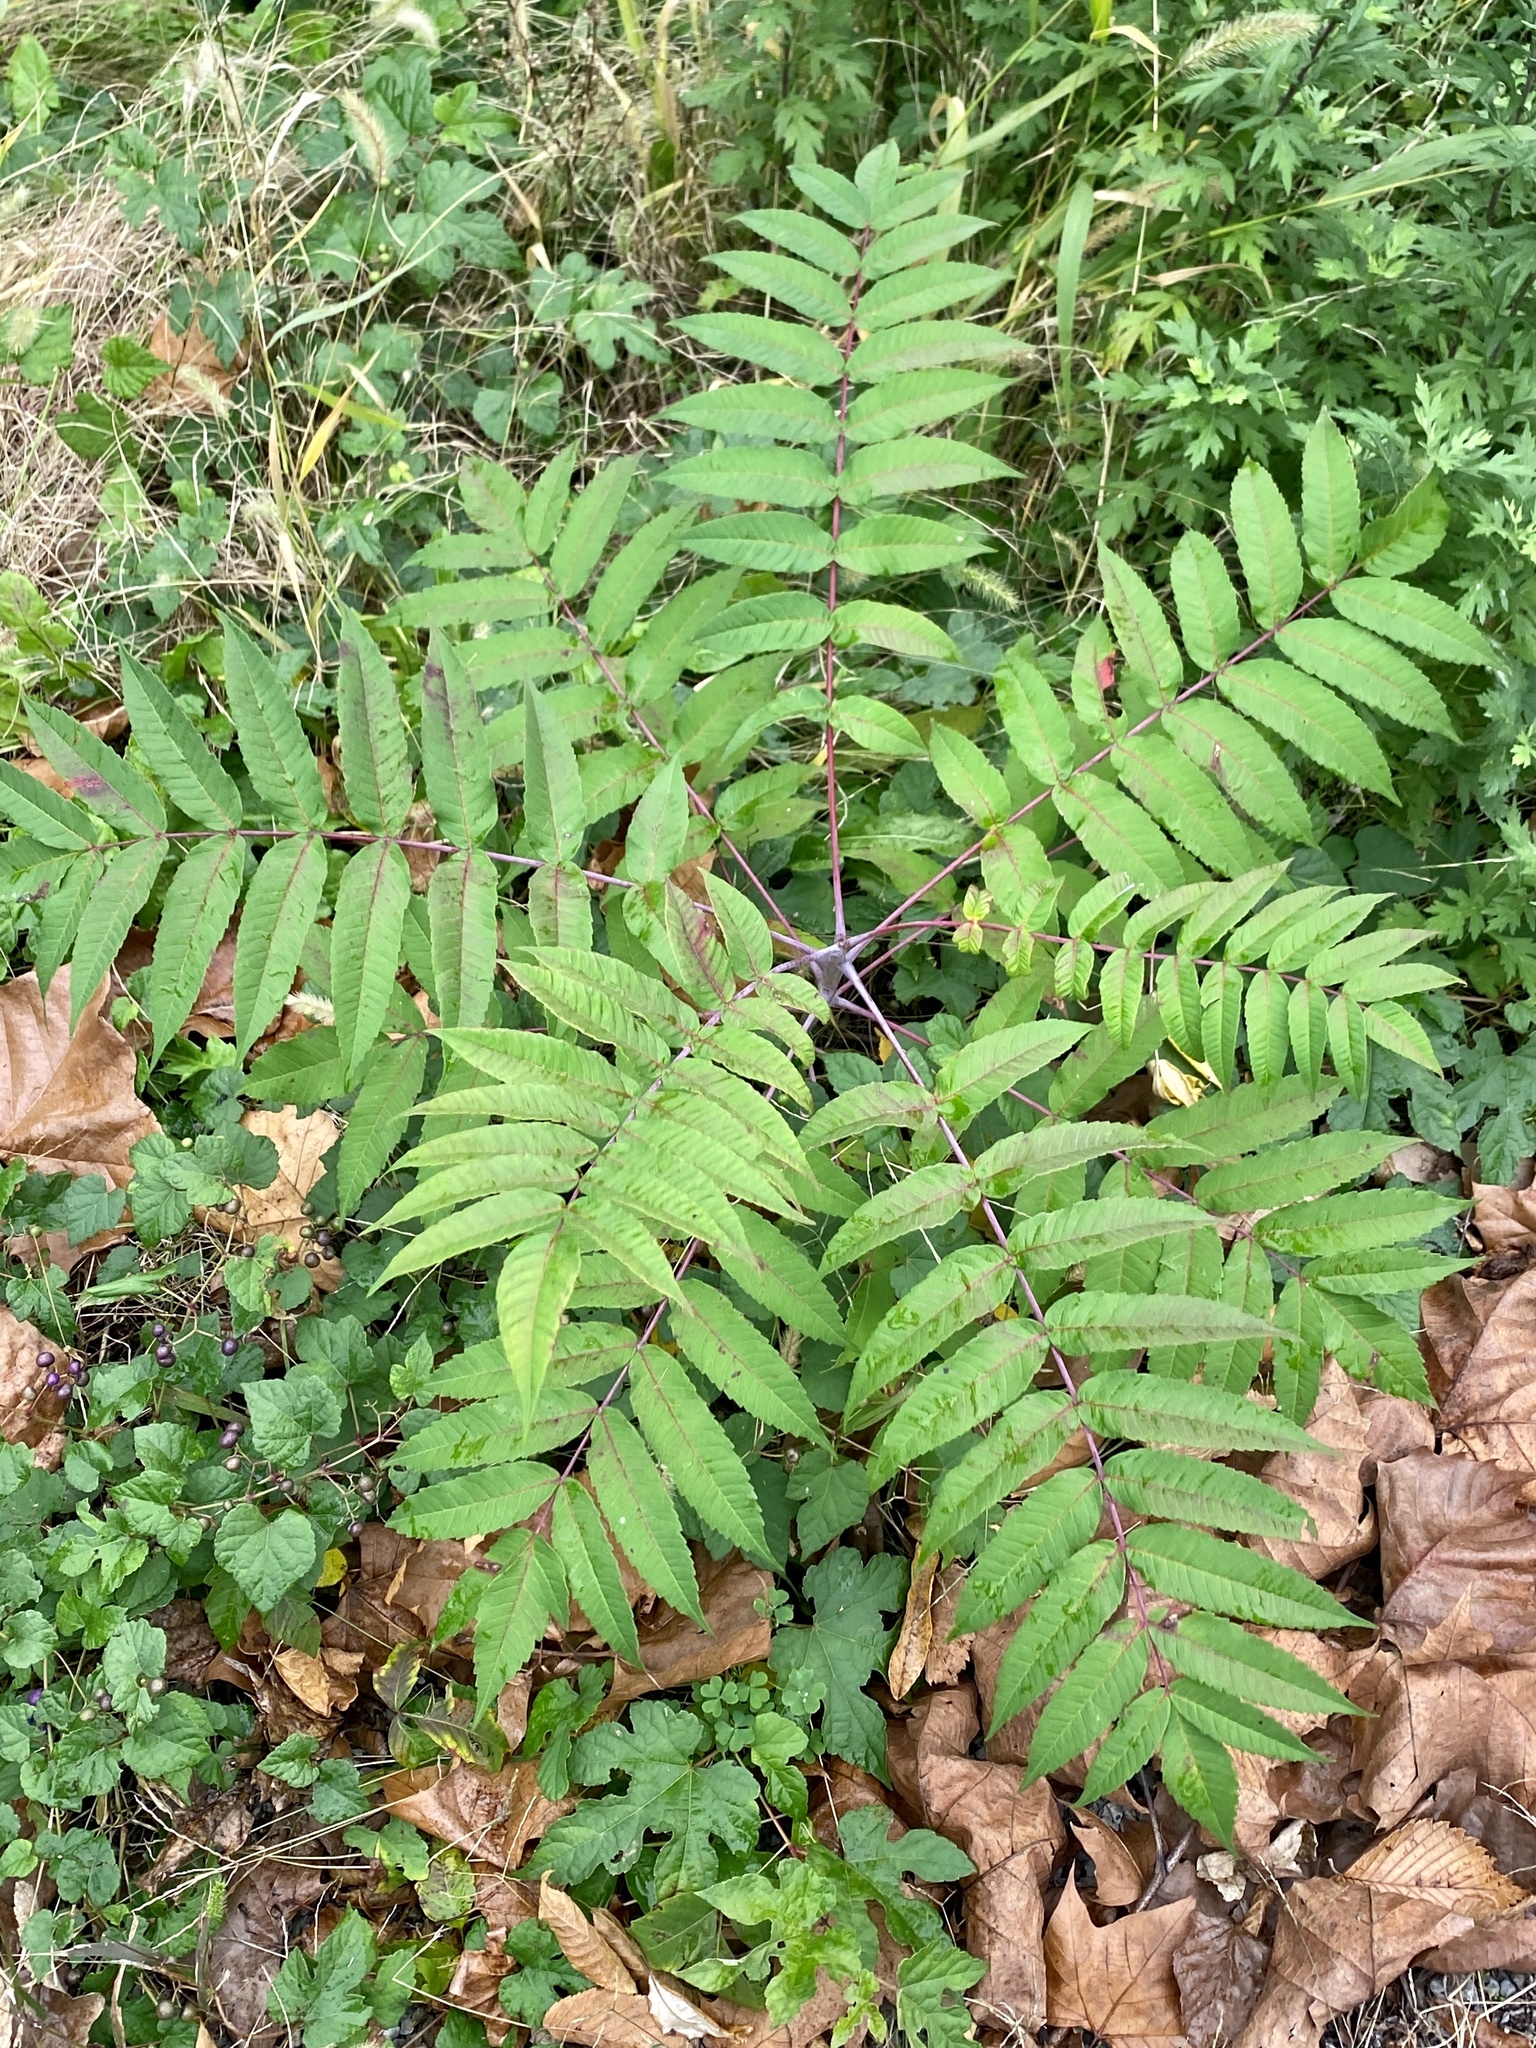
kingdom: Plantae
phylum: Tracheophyta
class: Magnoliopsida
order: Sapindales
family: Anacardiaceae
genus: Rhus
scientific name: Rhus glabra
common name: Scarlet sumac
